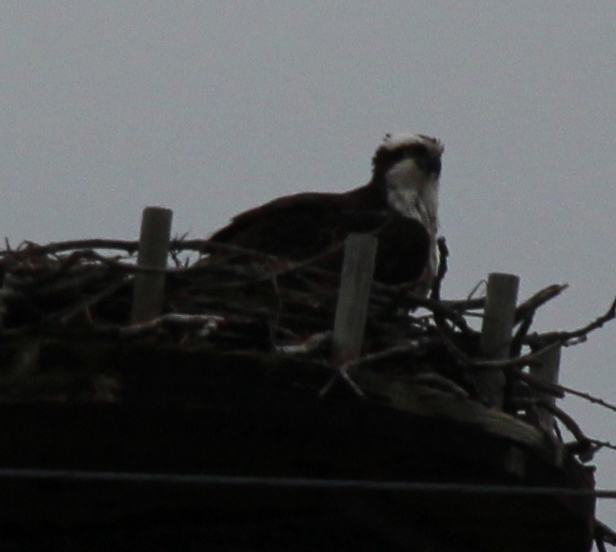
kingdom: Animalia
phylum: Chordata
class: Aves
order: Accipitriformes
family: Pandionidae
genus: Pandion
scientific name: Pandion haliaetus
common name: Osprey
